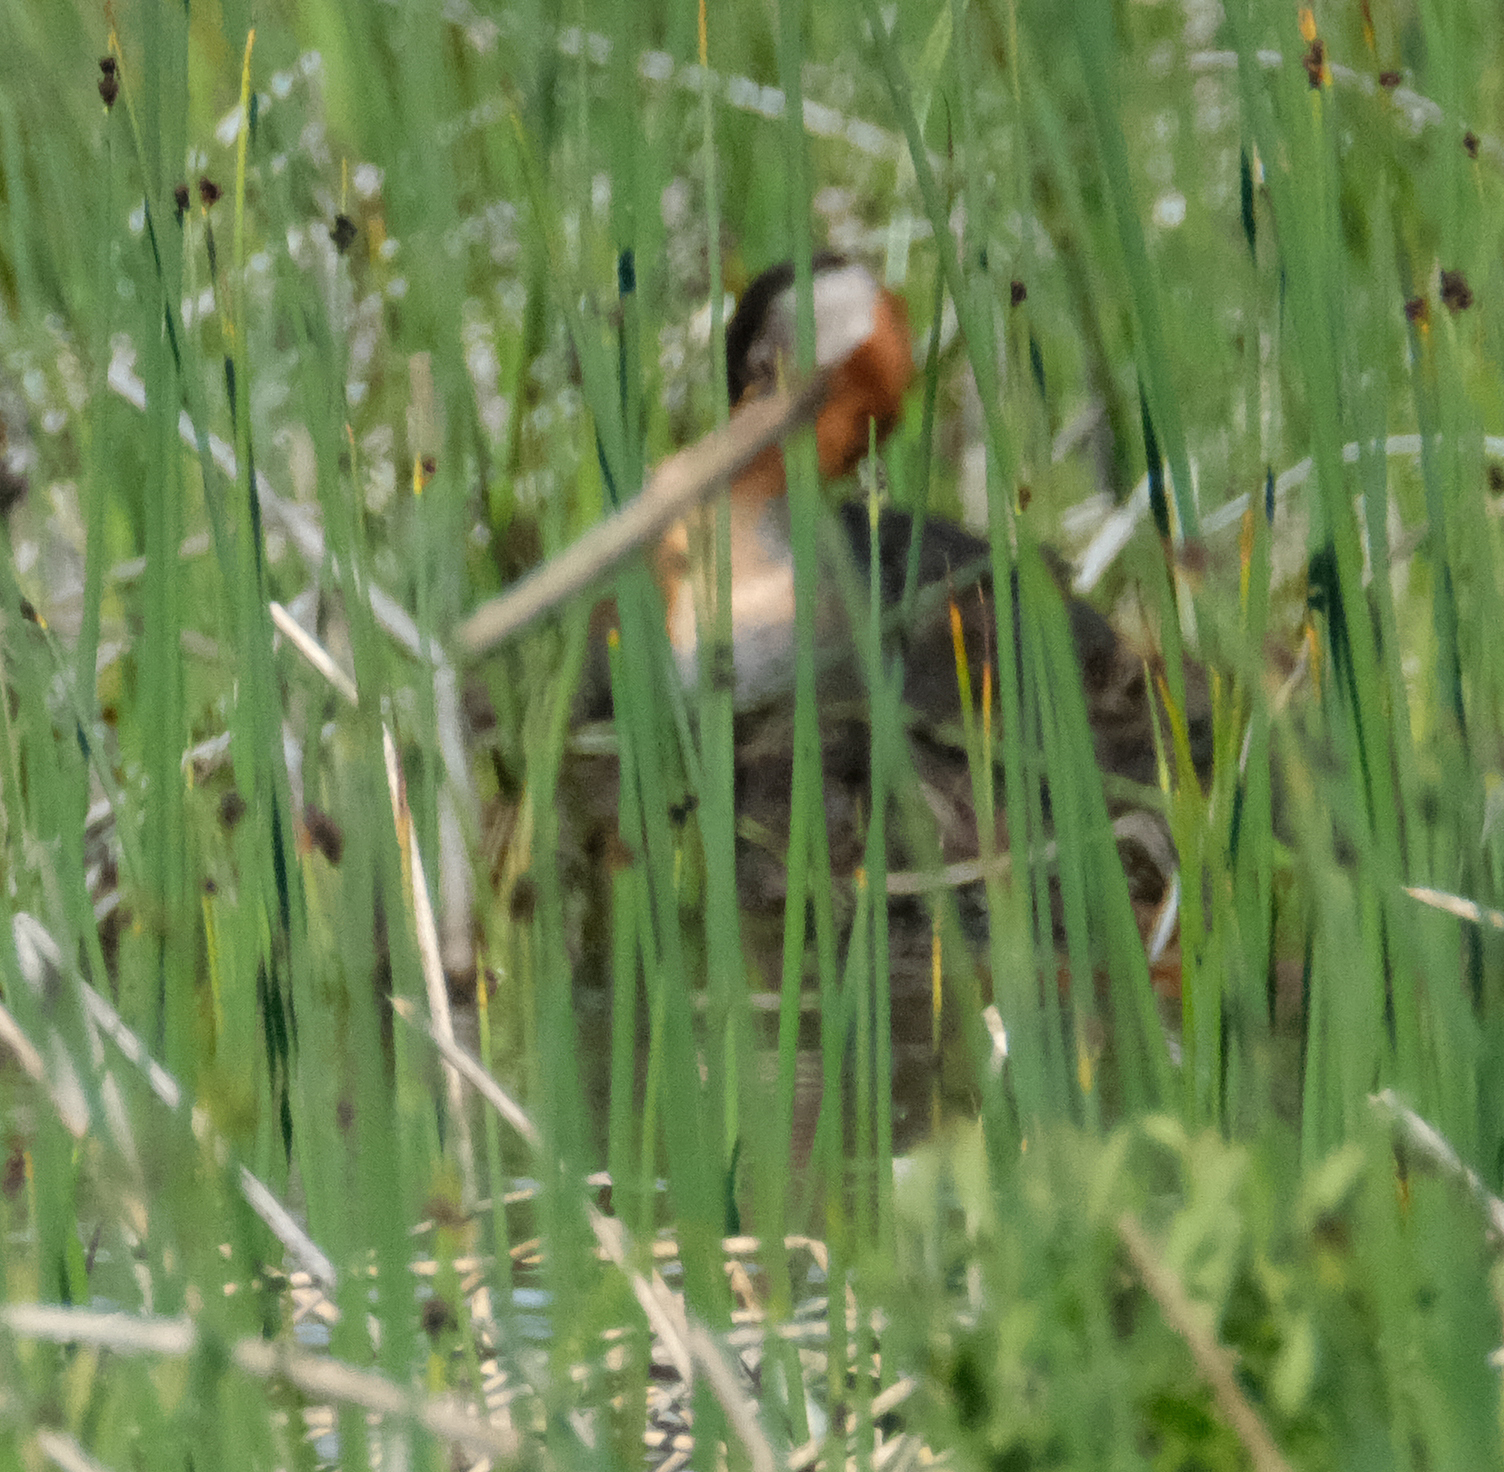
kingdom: Animalia
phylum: Chordata
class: Aves
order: Podicipediformes
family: Podicipedidae
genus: Podiceps
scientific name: Podiceps grisegena
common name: Red-necked grebe
